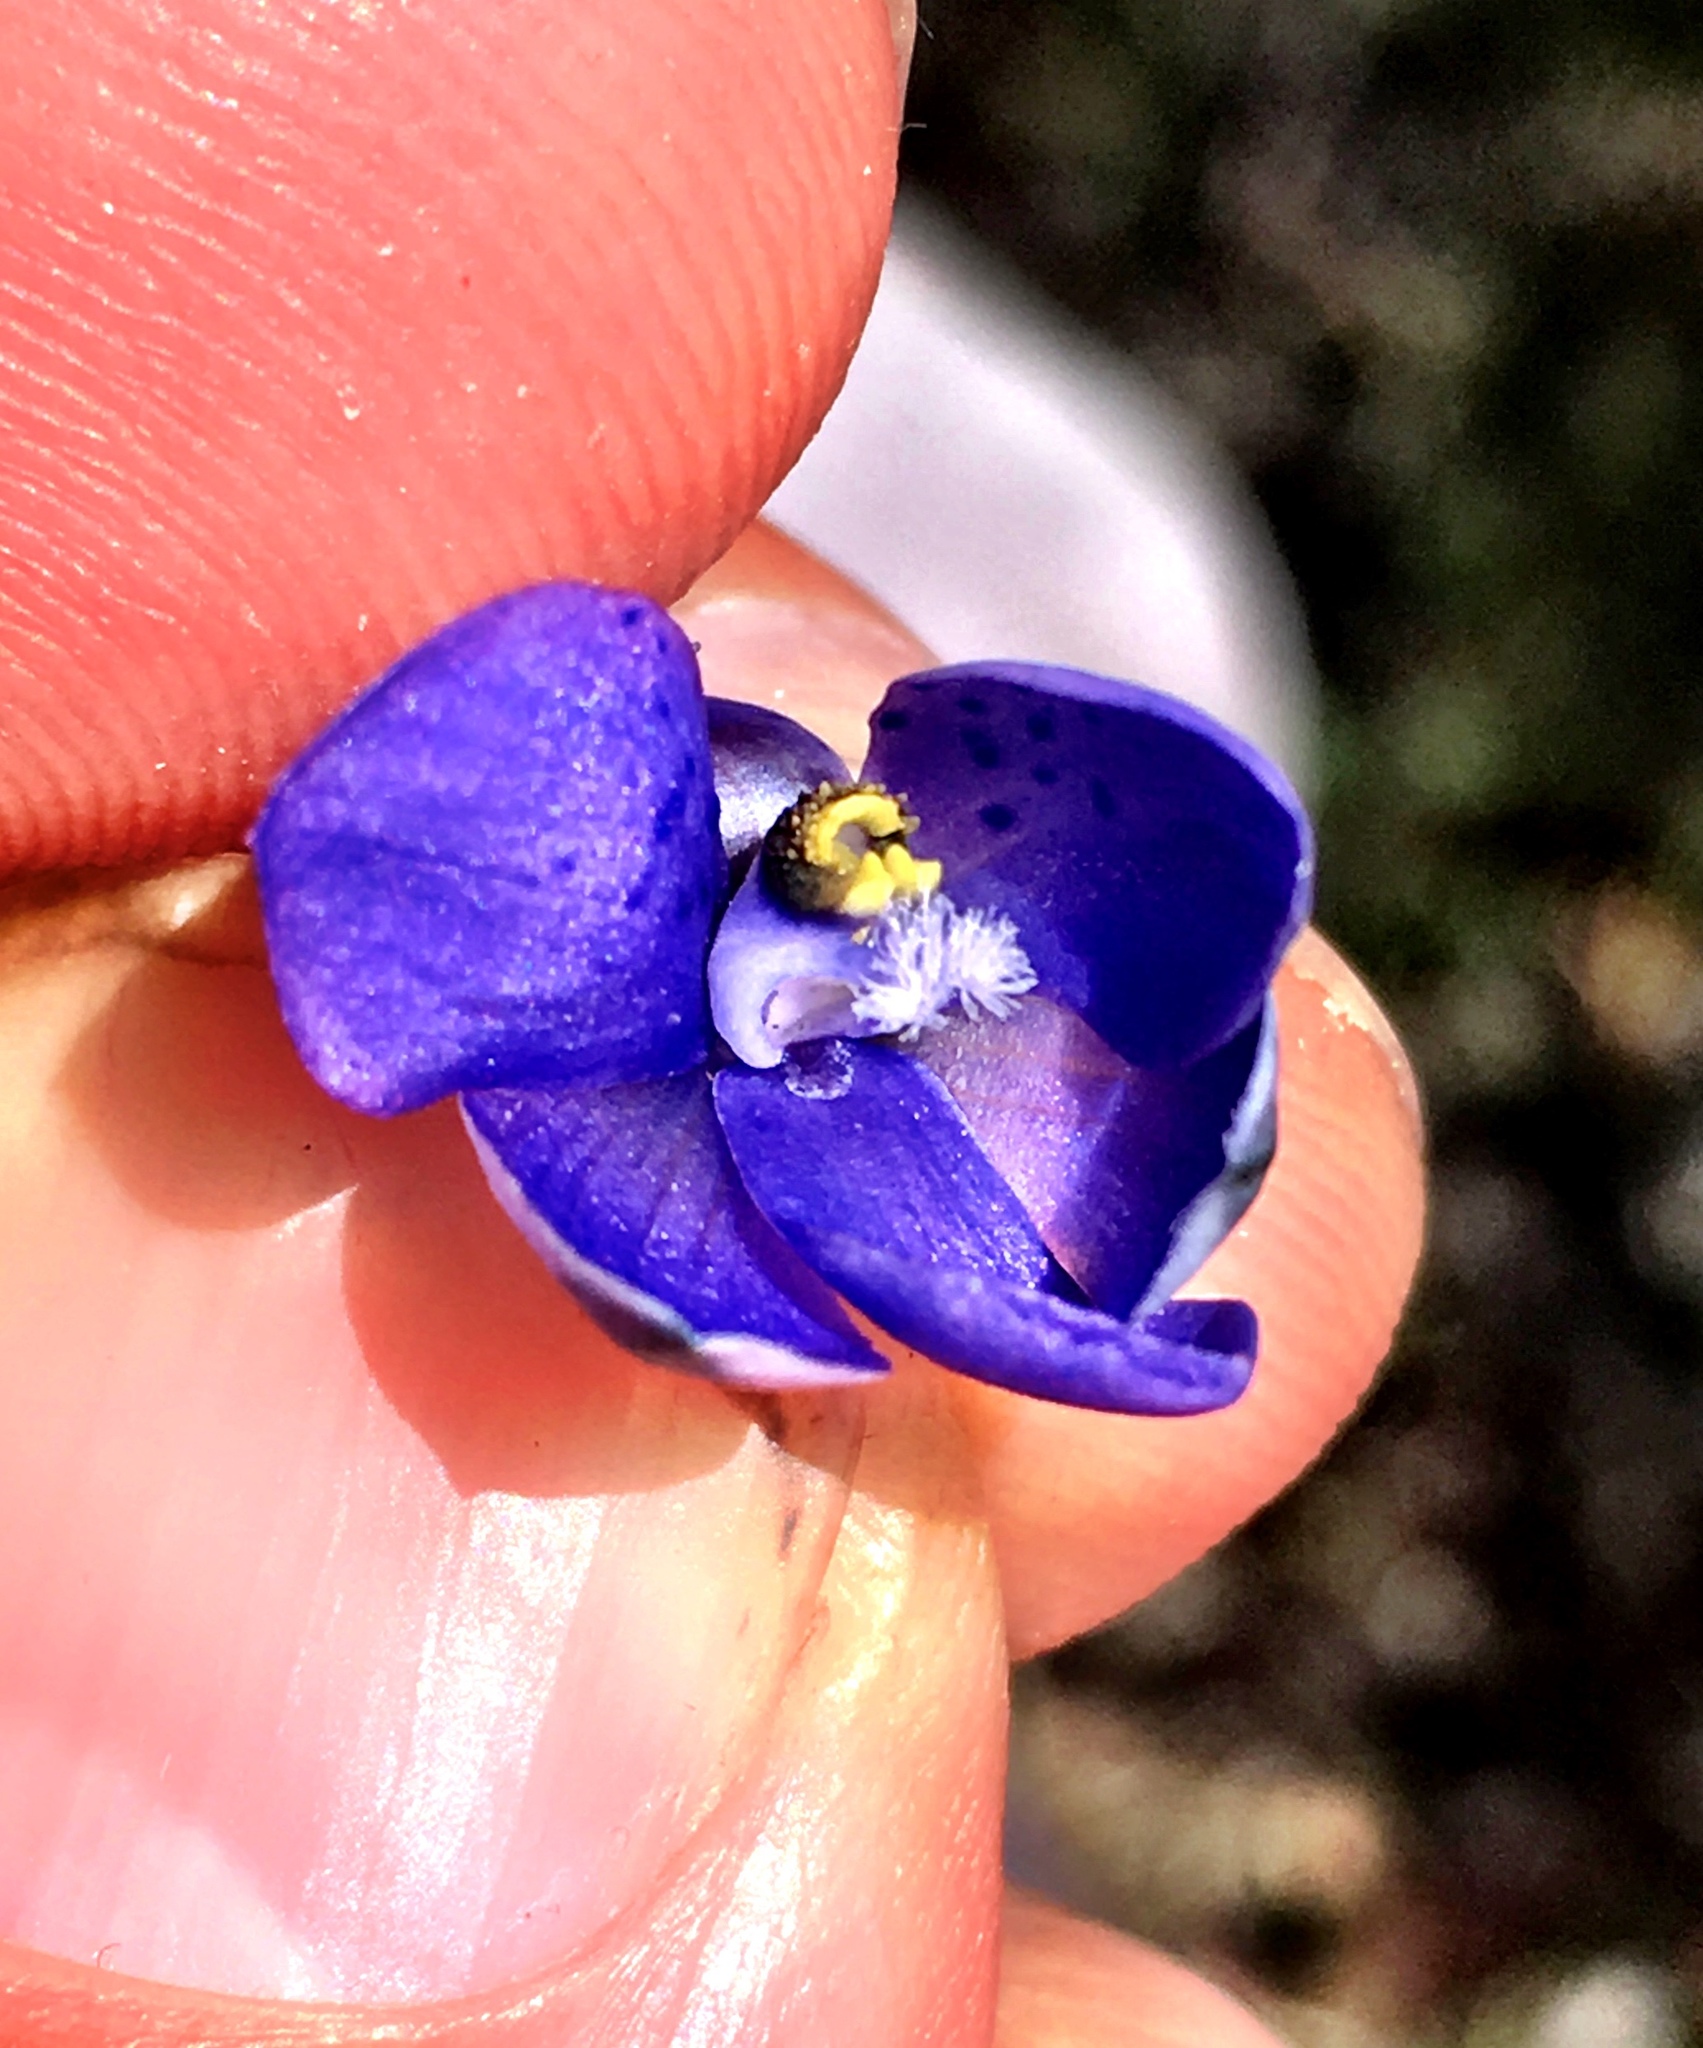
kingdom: Plantae
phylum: Tracheophyta
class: Liliopsida
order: Asparagales
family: Orchidaceae
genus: Thelymitra
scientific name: Thelymitra ixioides
